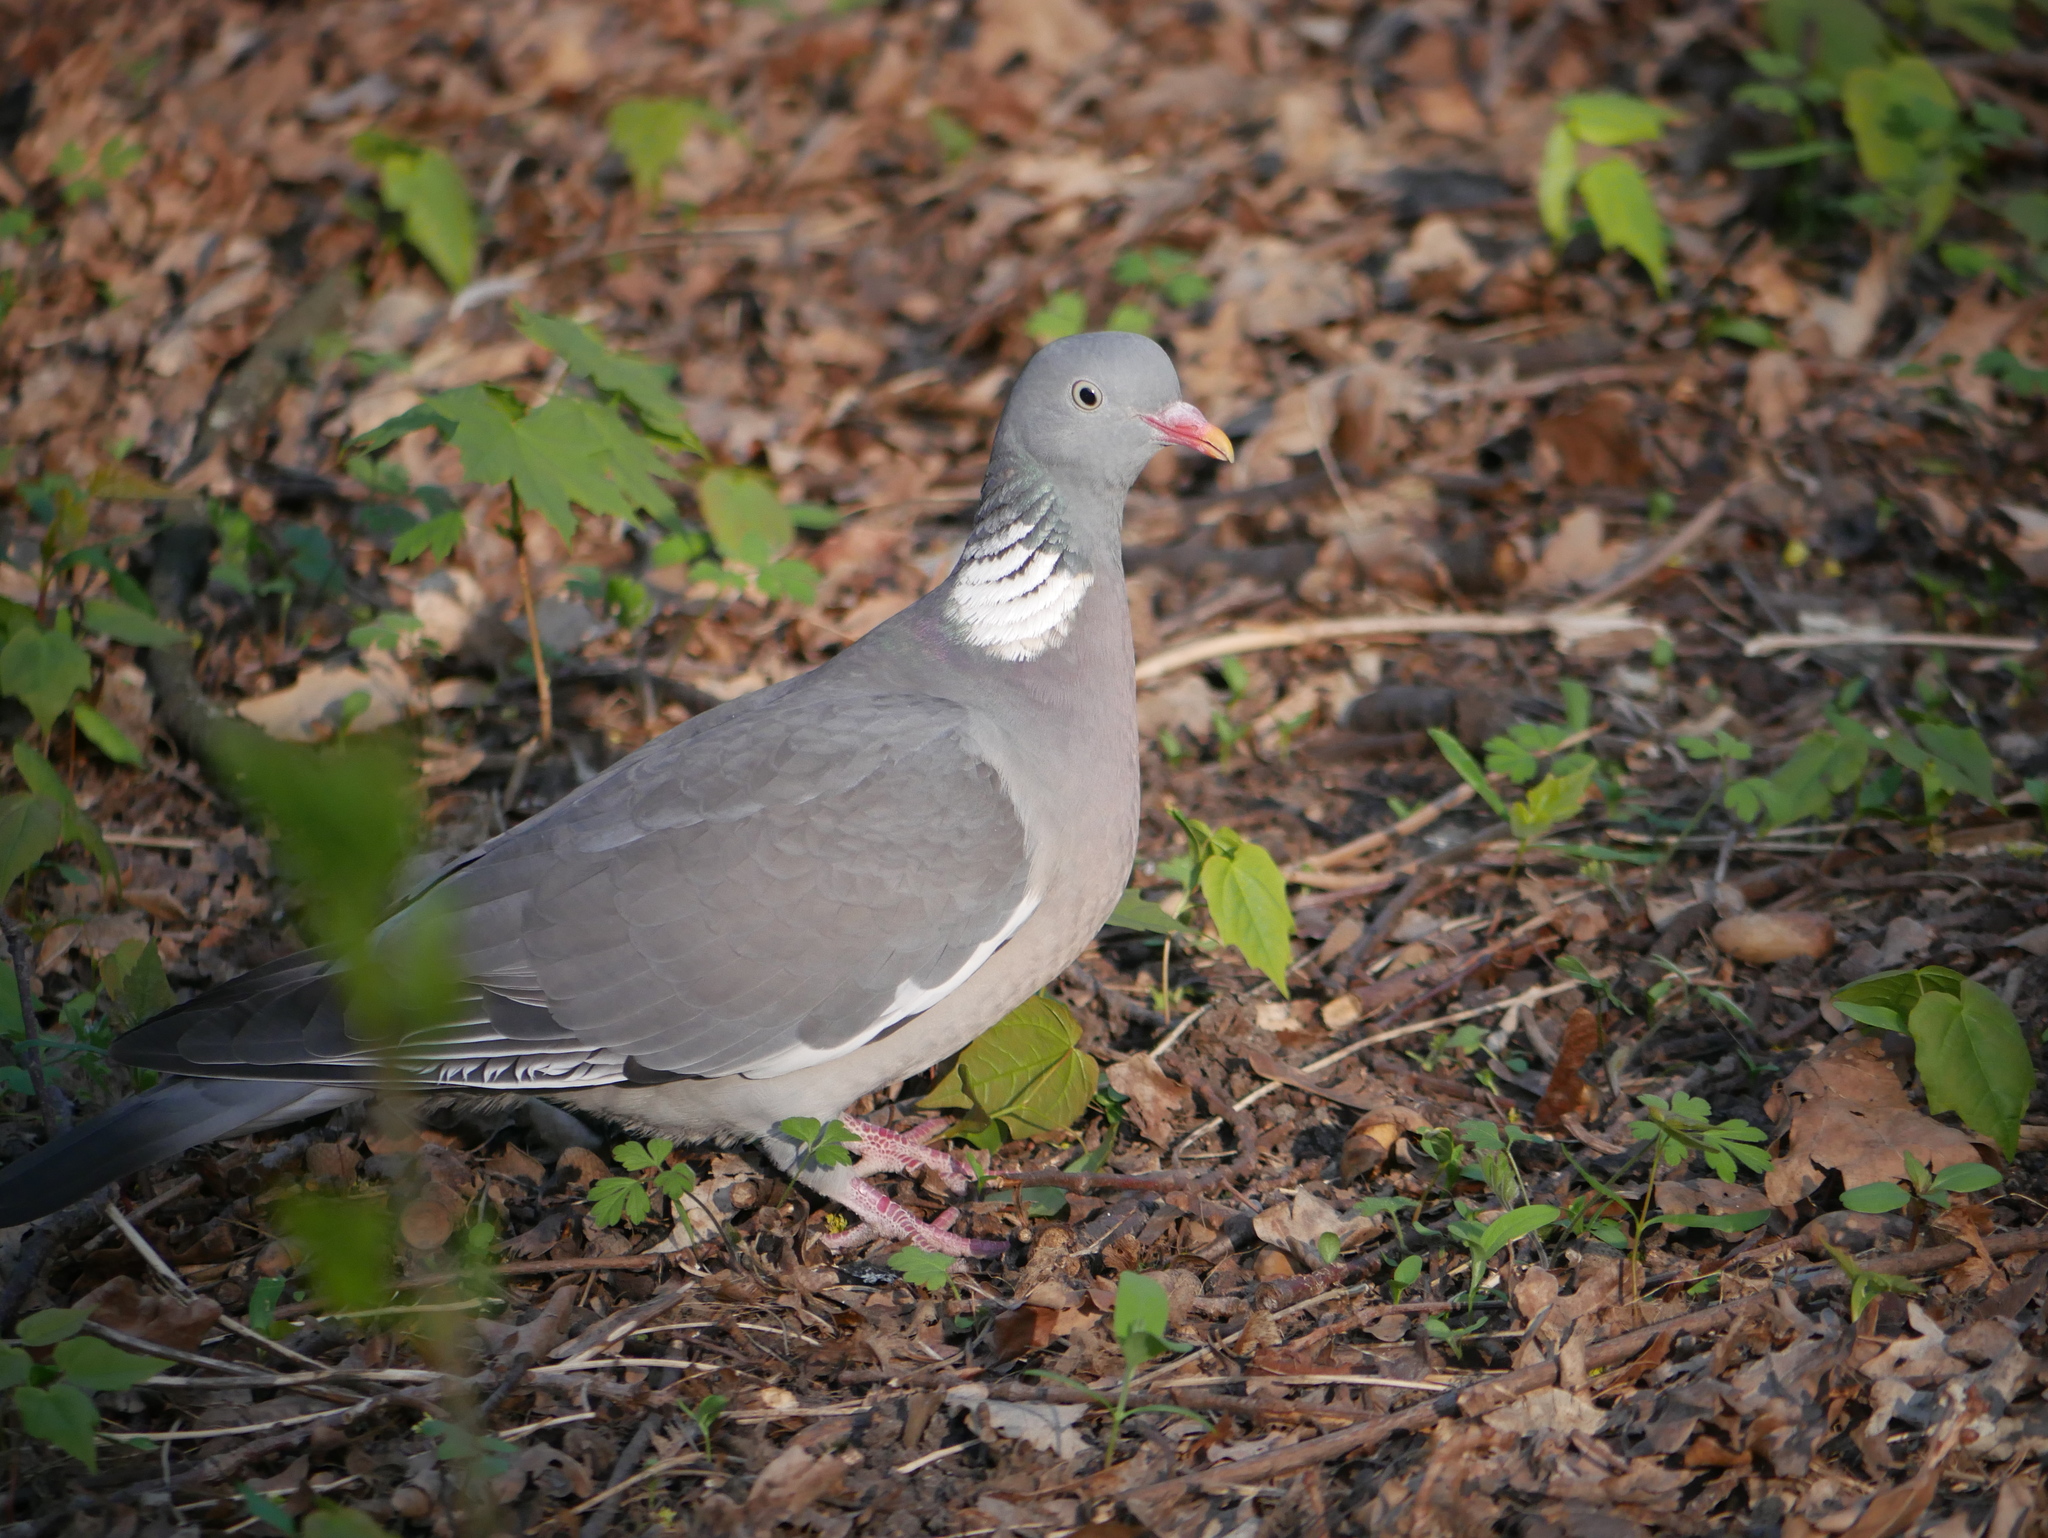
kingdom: Animalia
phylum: Chordata
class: Aves
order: Columbiformes
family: Columbidae
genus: Columba
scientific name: Columba palumbus
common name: Common wood pigeon
